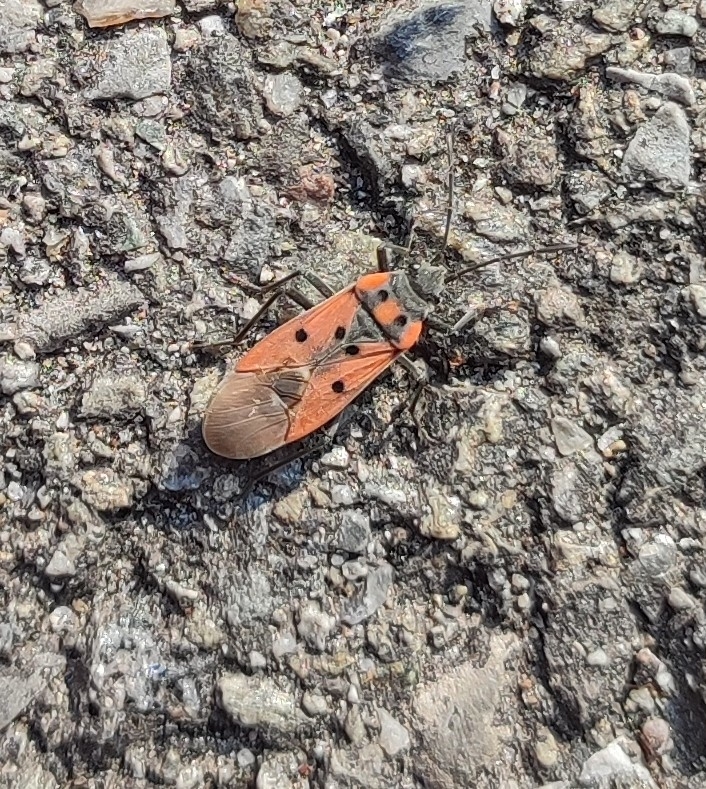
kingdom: Animalia
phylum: Arthropoda
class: Insecta
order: Hemiptera
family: Lygaeidae
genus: Lygaeus
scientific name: Lygaeus creticus
